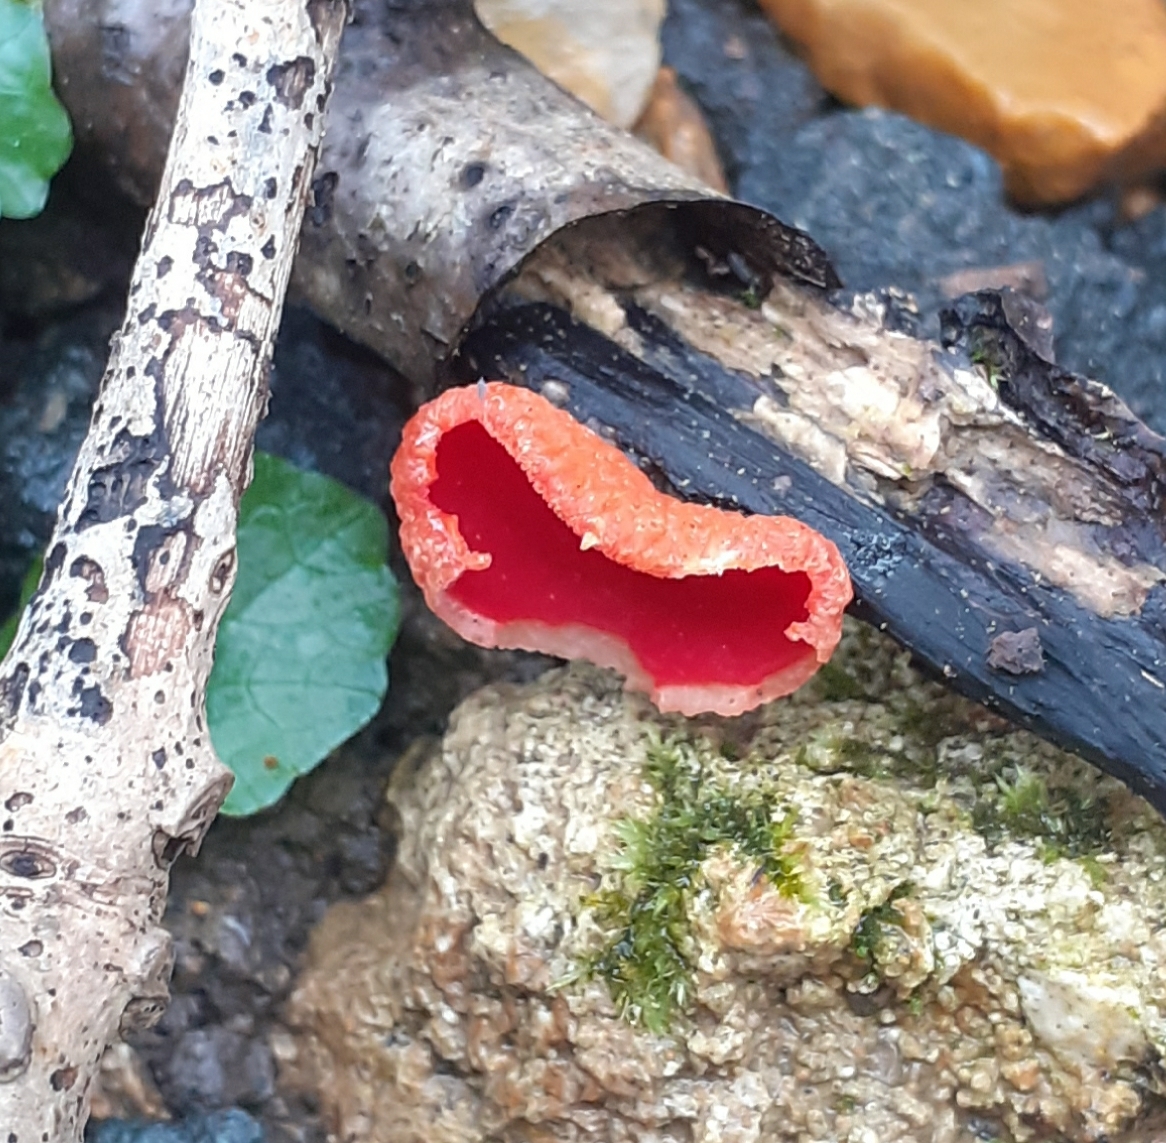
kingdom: Fungi
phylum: Ascomycota
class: Pezizomycetes
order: Pezizales
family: Sarcoscyphaceae
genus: Sarcoscypha
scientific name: Sarcoscypha
